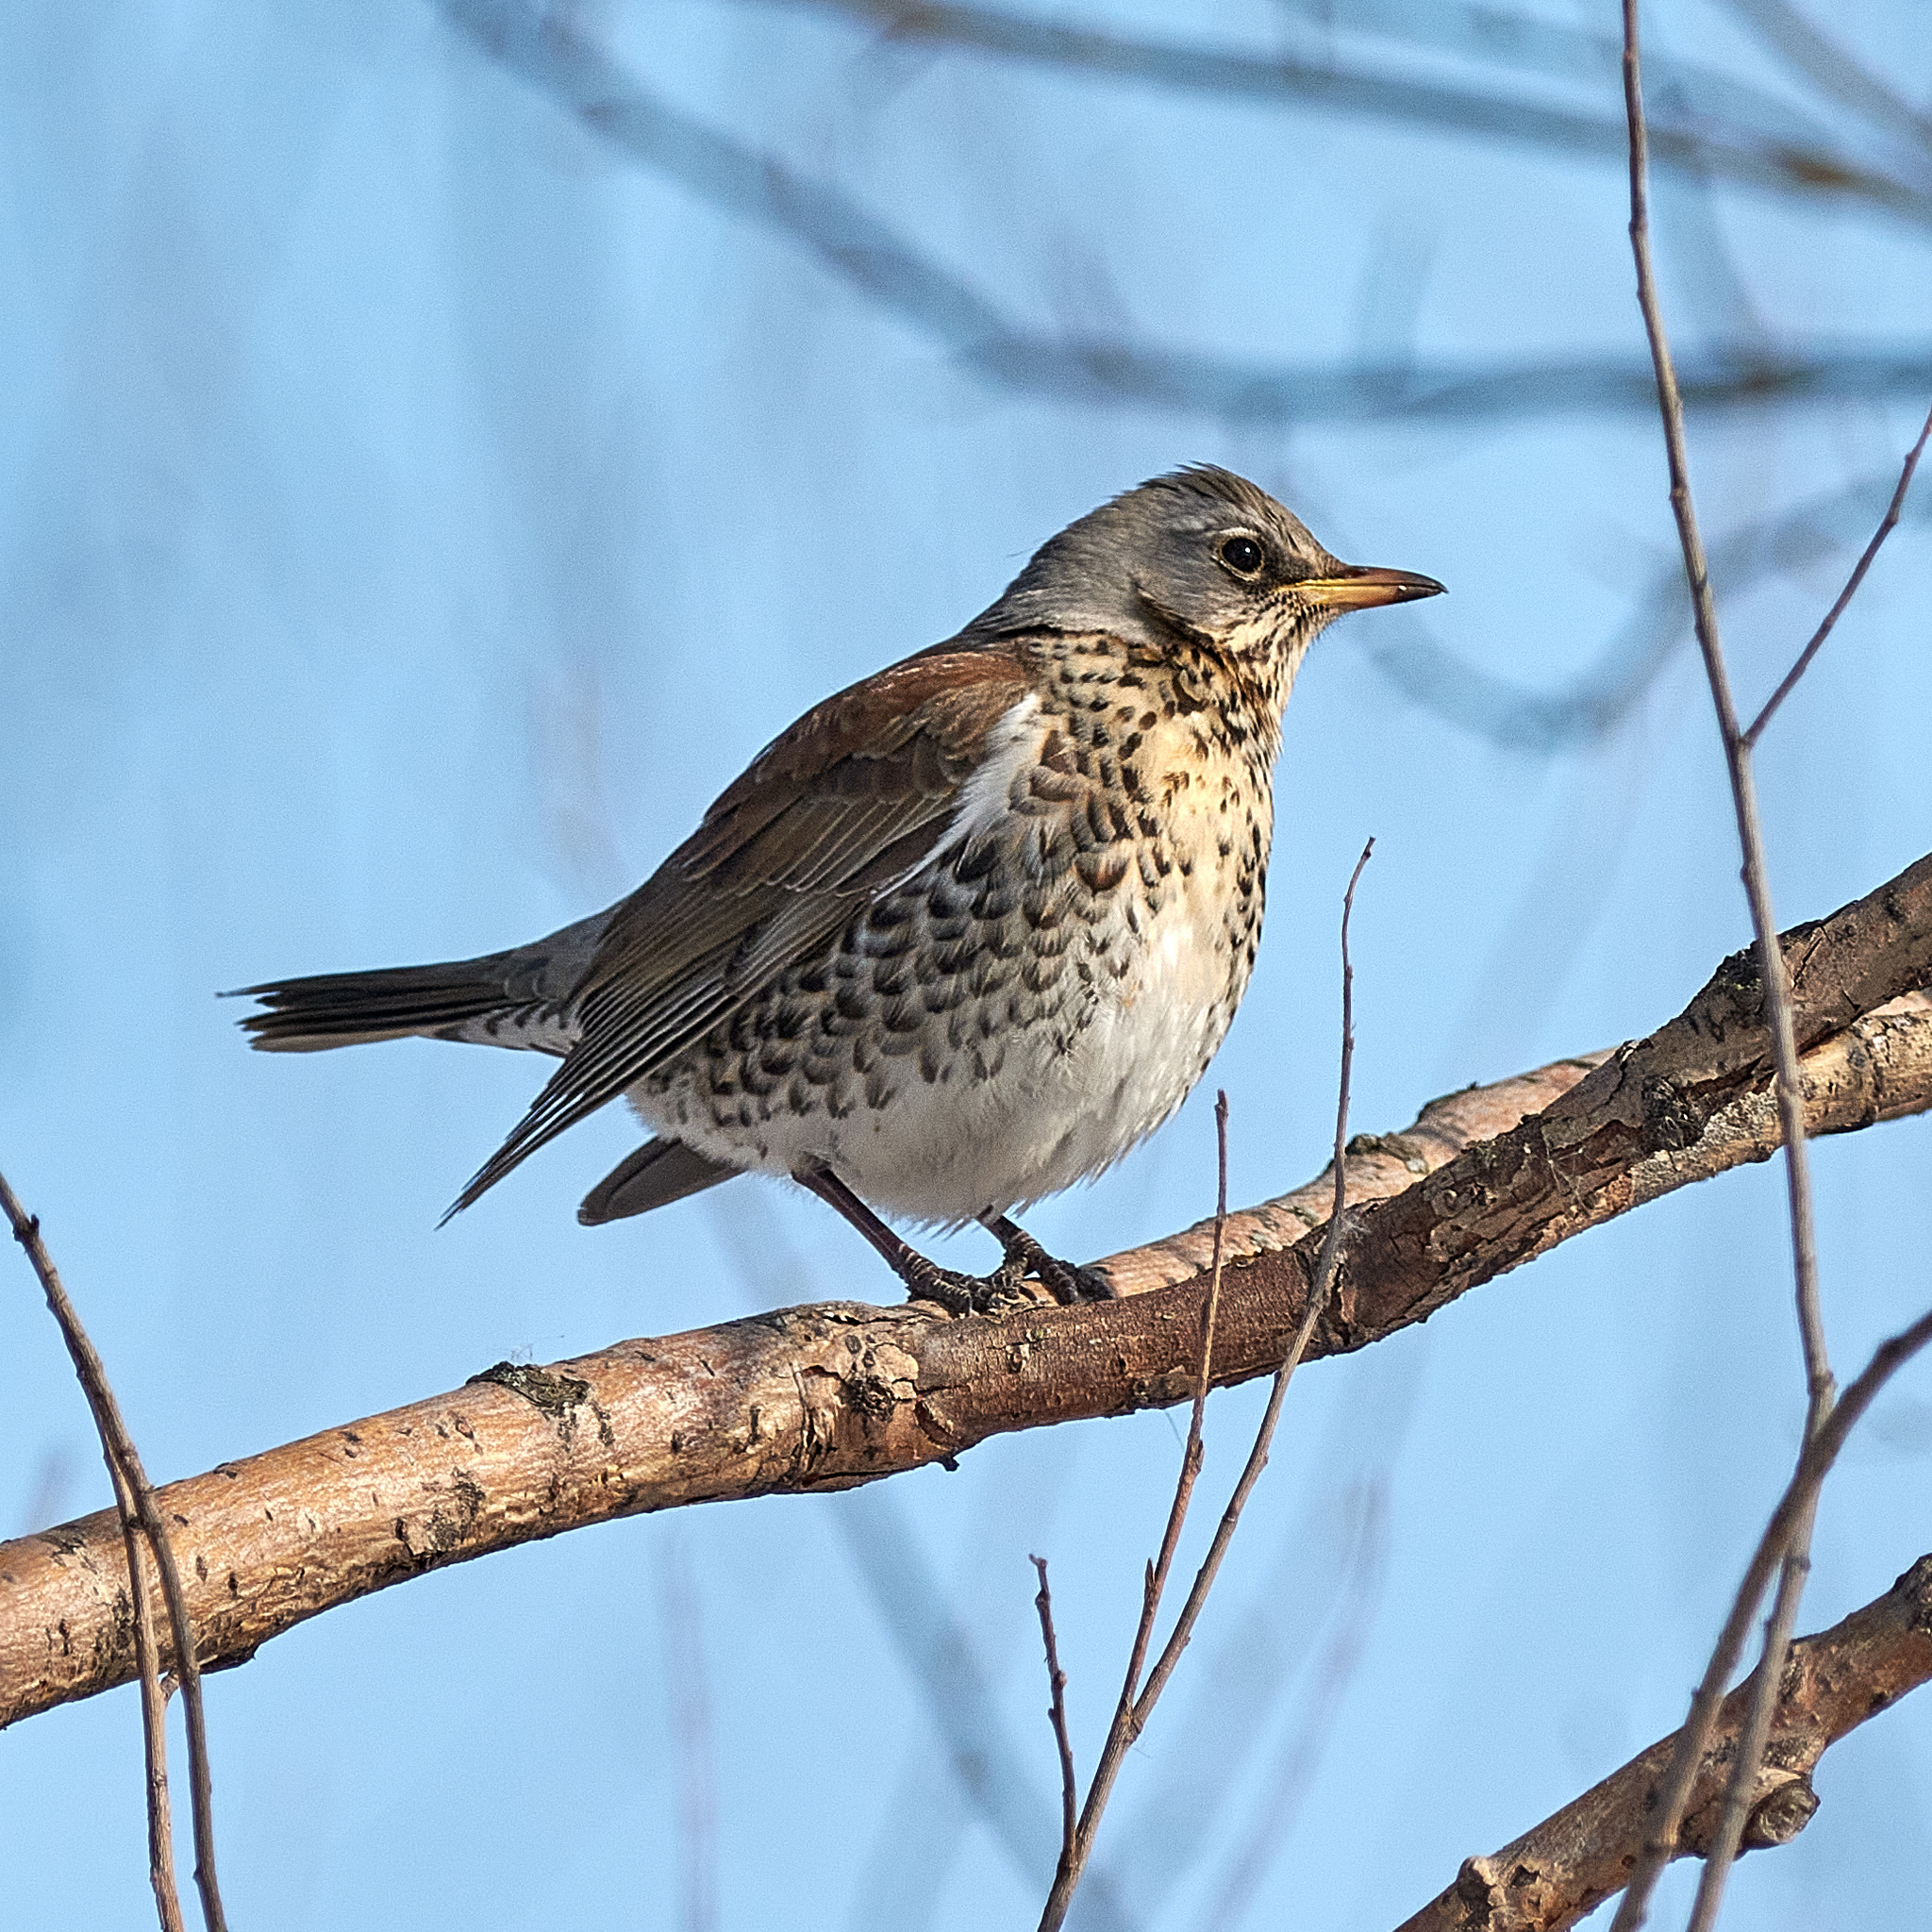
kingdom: Animalia
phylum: Chordata
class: Aves
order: Passeriformes
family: Turdidae
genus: Turdus
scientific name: Turdus pilaris
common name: Fieldfare
